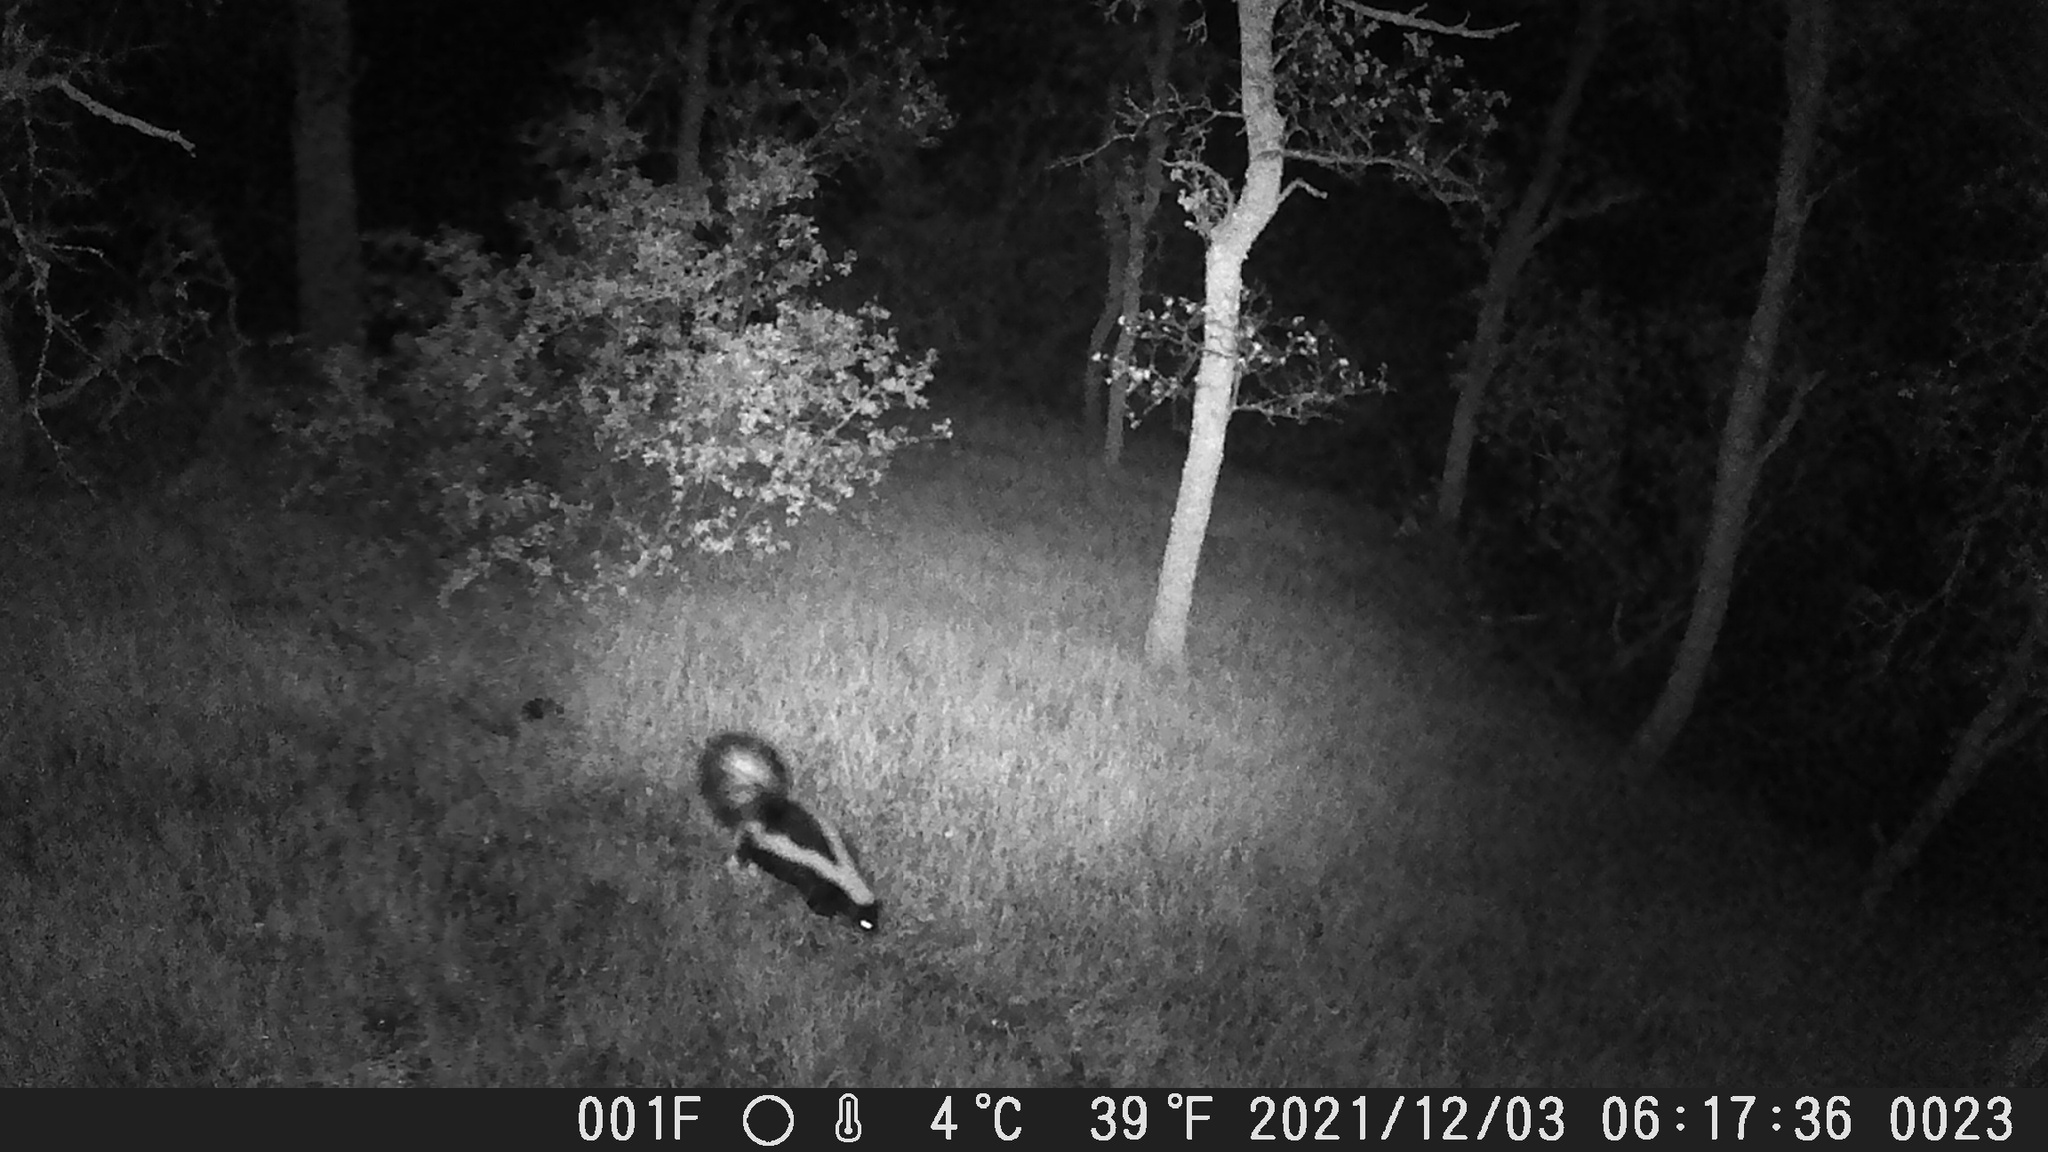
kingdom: Animalia
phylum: Chordata
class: Mammalia
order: Carnivora
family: Mephitidae
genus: Mephitis
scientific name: Mephitis mephitis
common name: Striped skunk
